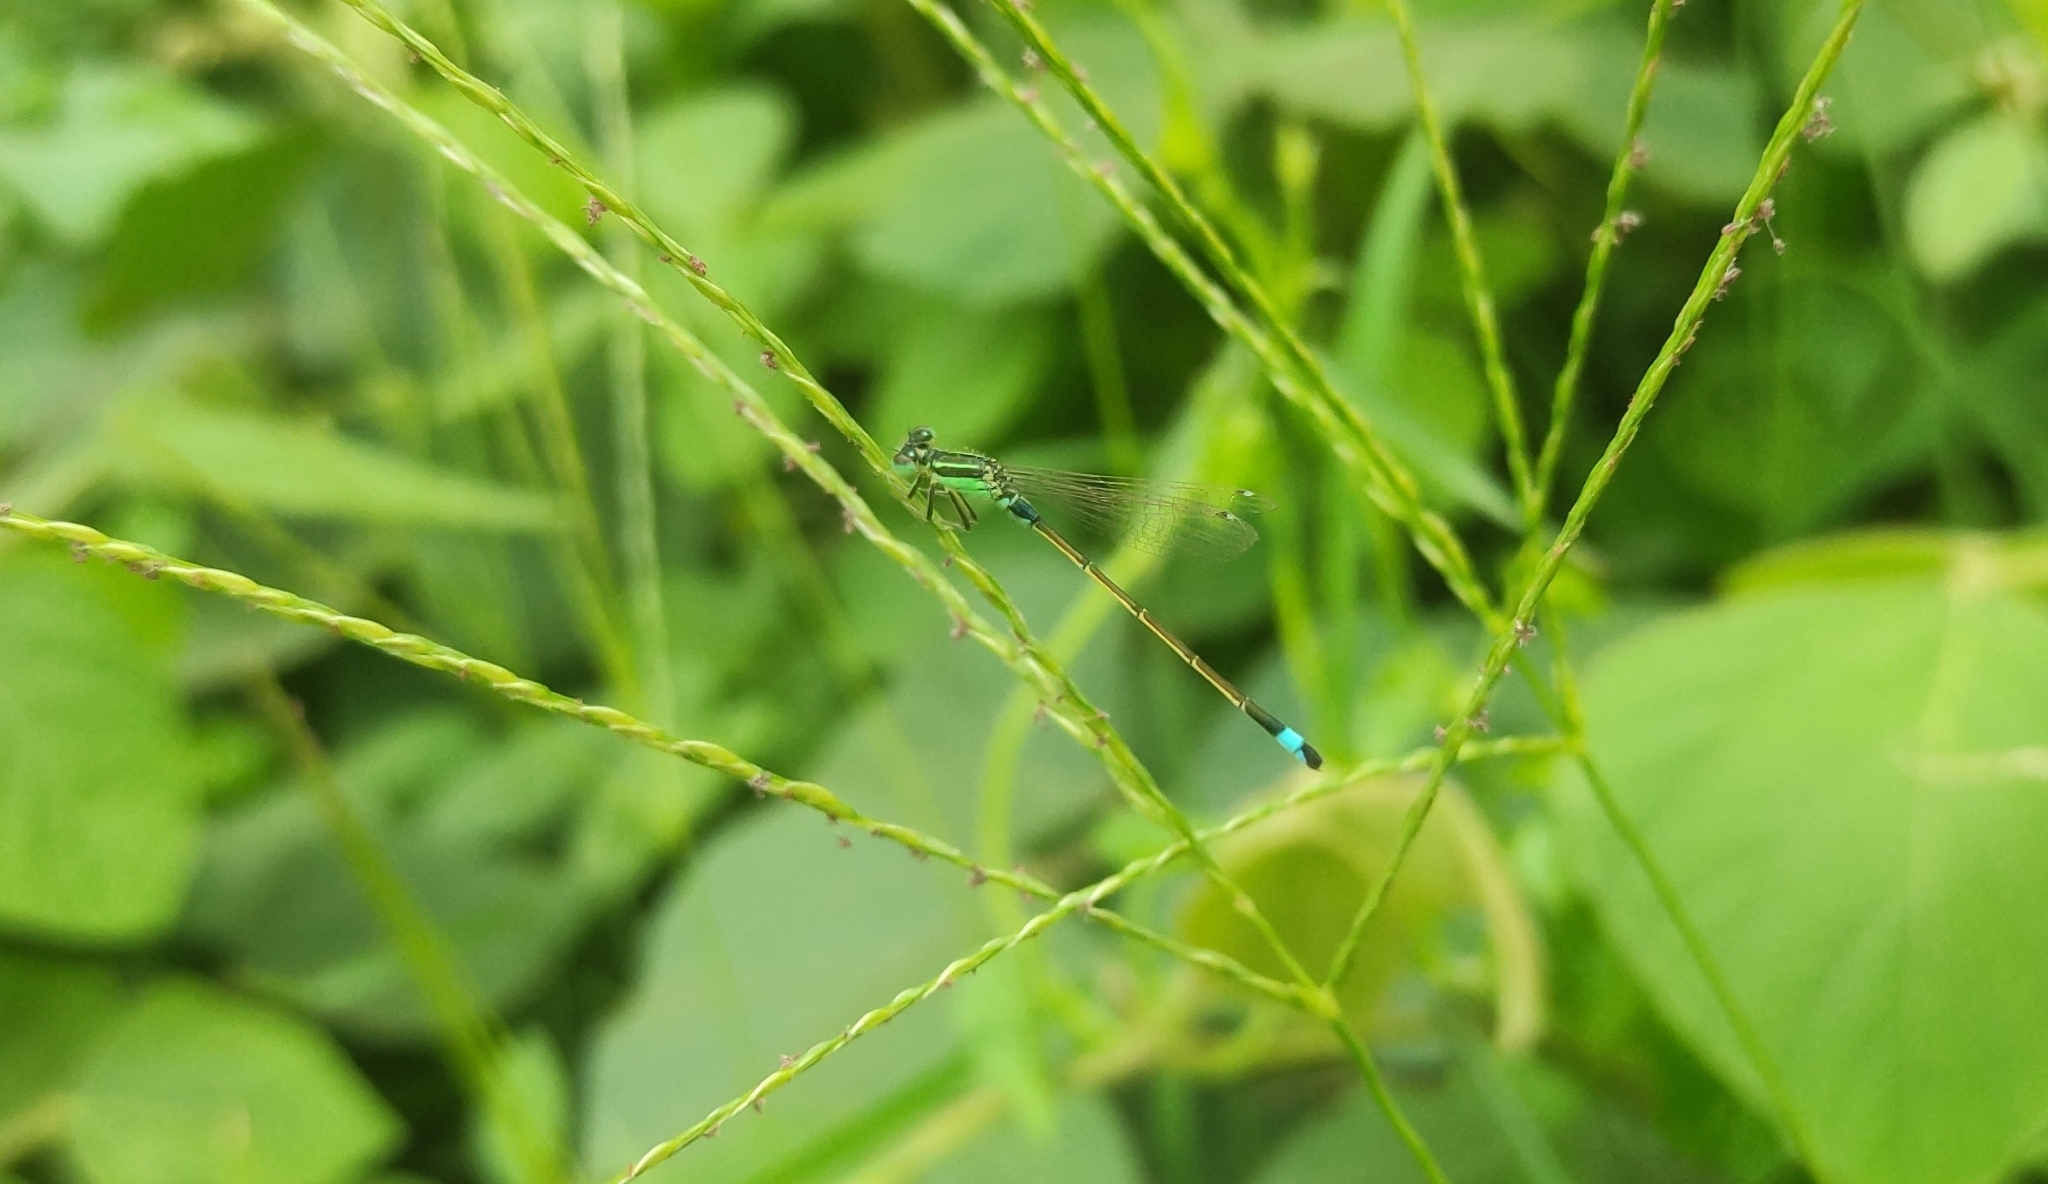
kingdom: Animalia
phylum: Arthropoda
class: Insecta
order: Odonata
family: Coenagrionidae
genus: Ischnura
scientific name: Ischnura senegalensis
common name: Tropical bluetail
